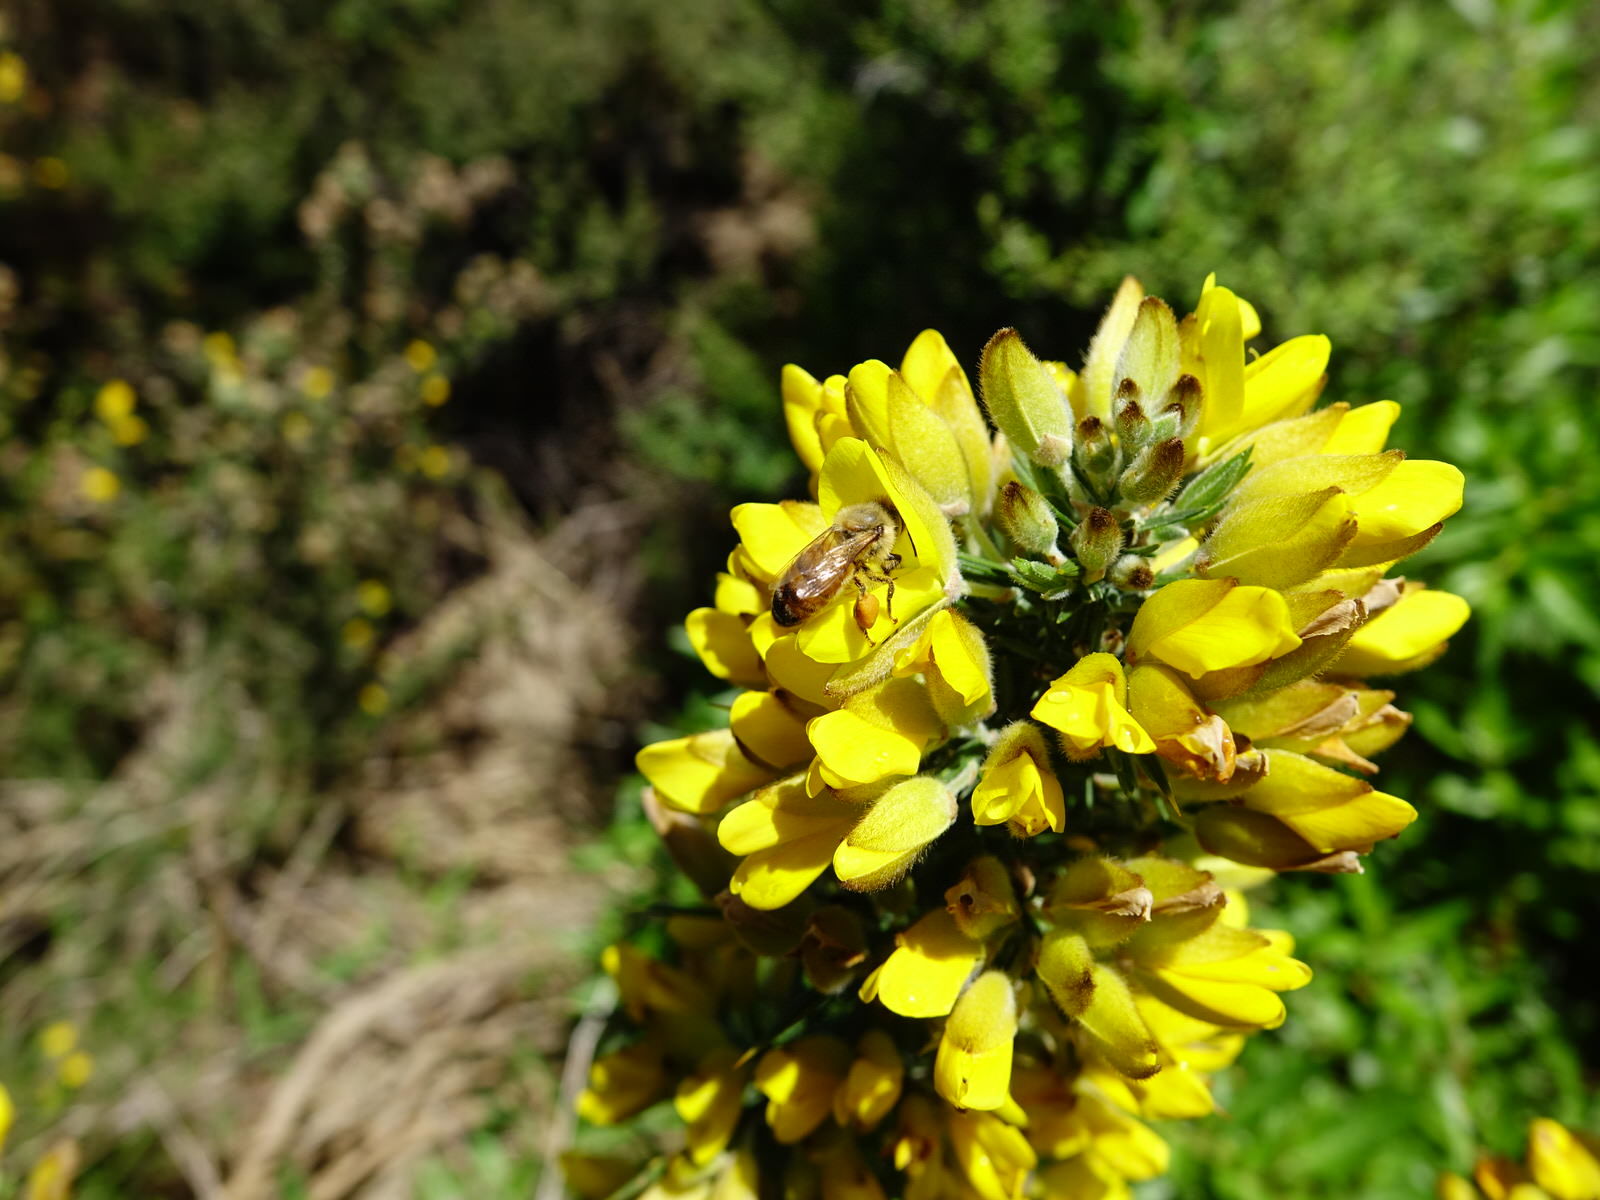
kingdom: Animalia
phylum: Arthropoda
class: Insecta
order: Hymenoptera
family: Apidae
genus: Apis
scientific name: Apis mellifera
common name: Honey bee
